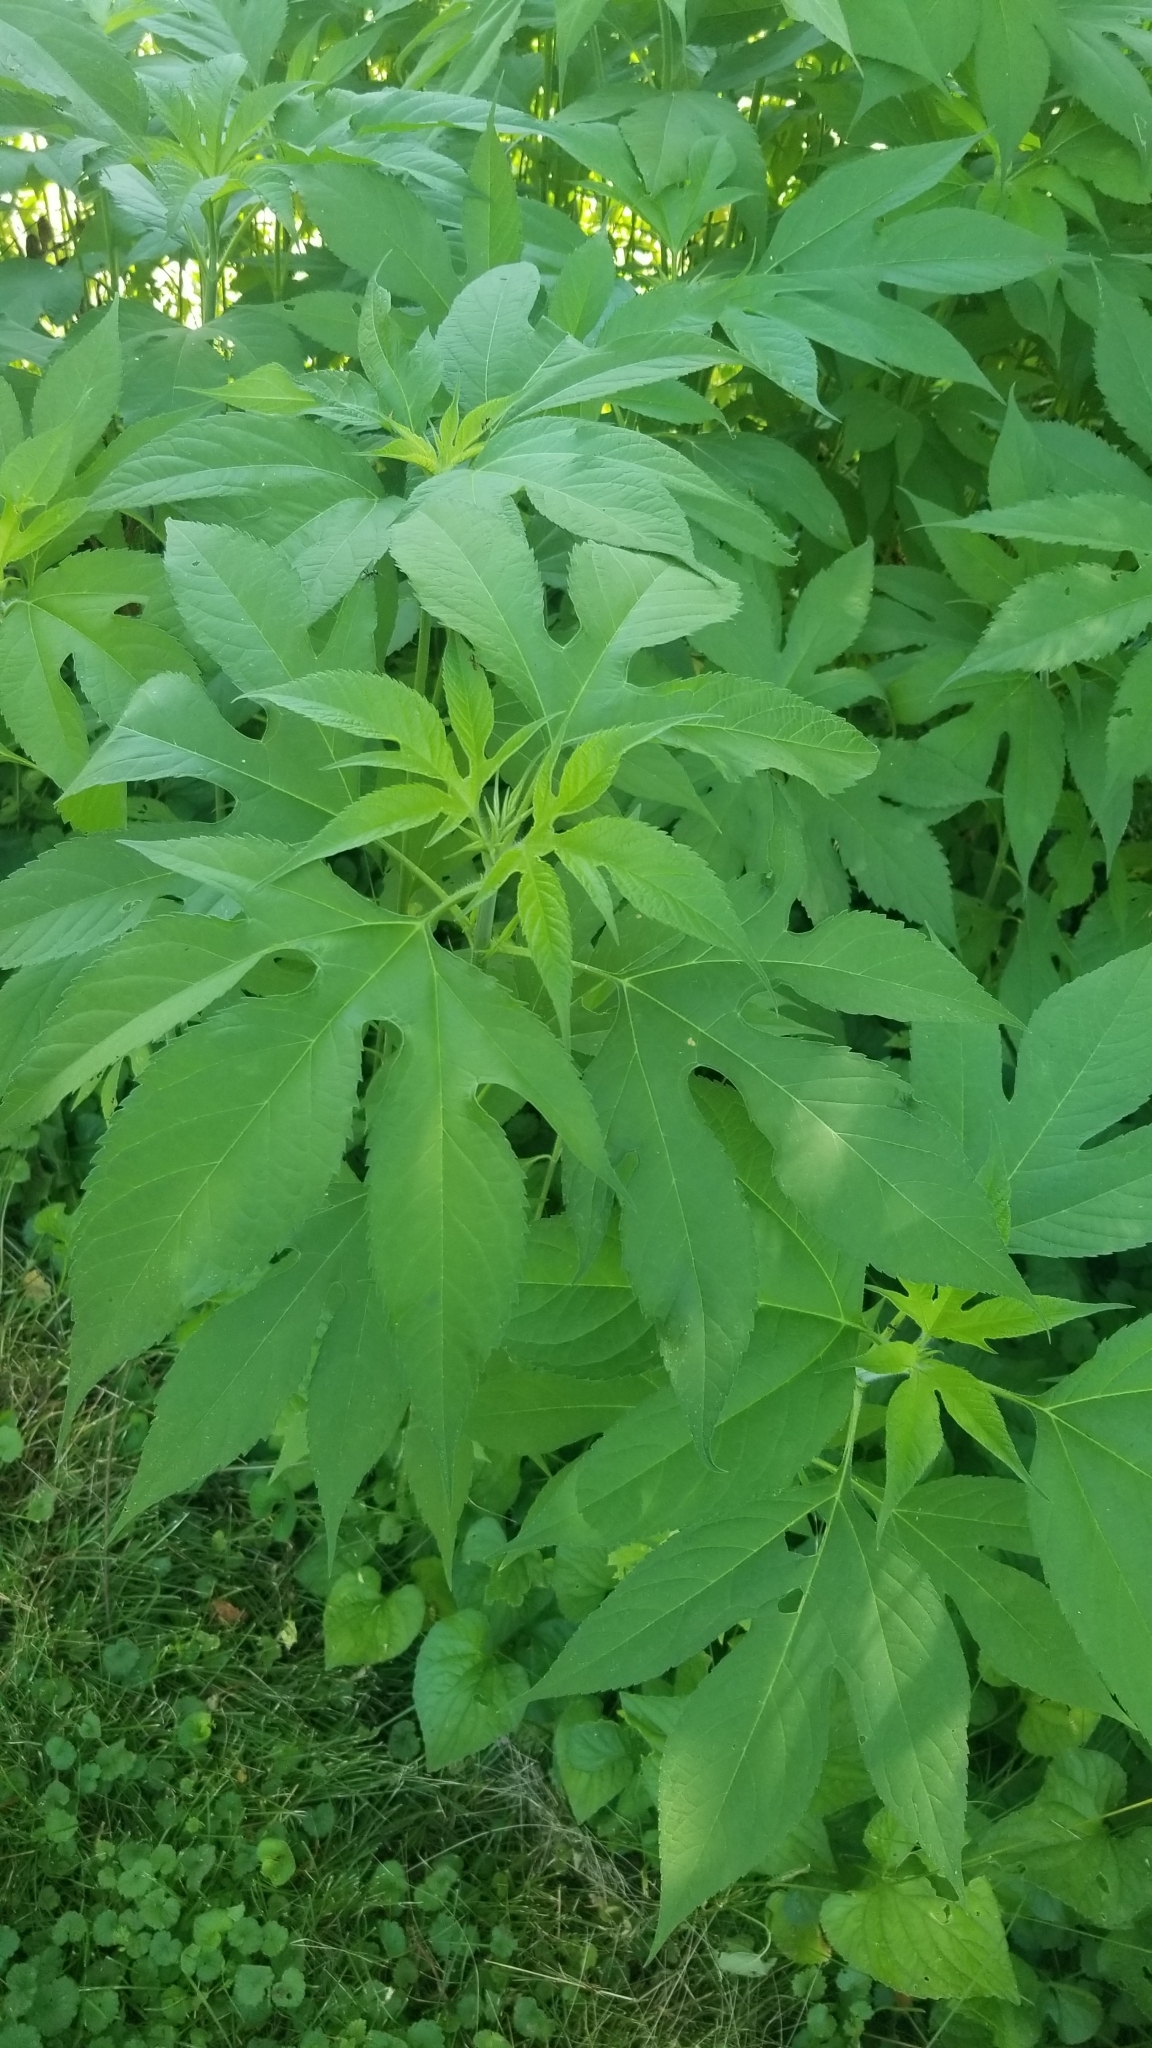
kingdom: Plantae
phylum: Tracheophyta
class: Magnoliopsida
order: Asterales
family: Asteraceae
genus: Ambrosia
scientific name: Ambrosia trifida
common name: Giant ragweed
